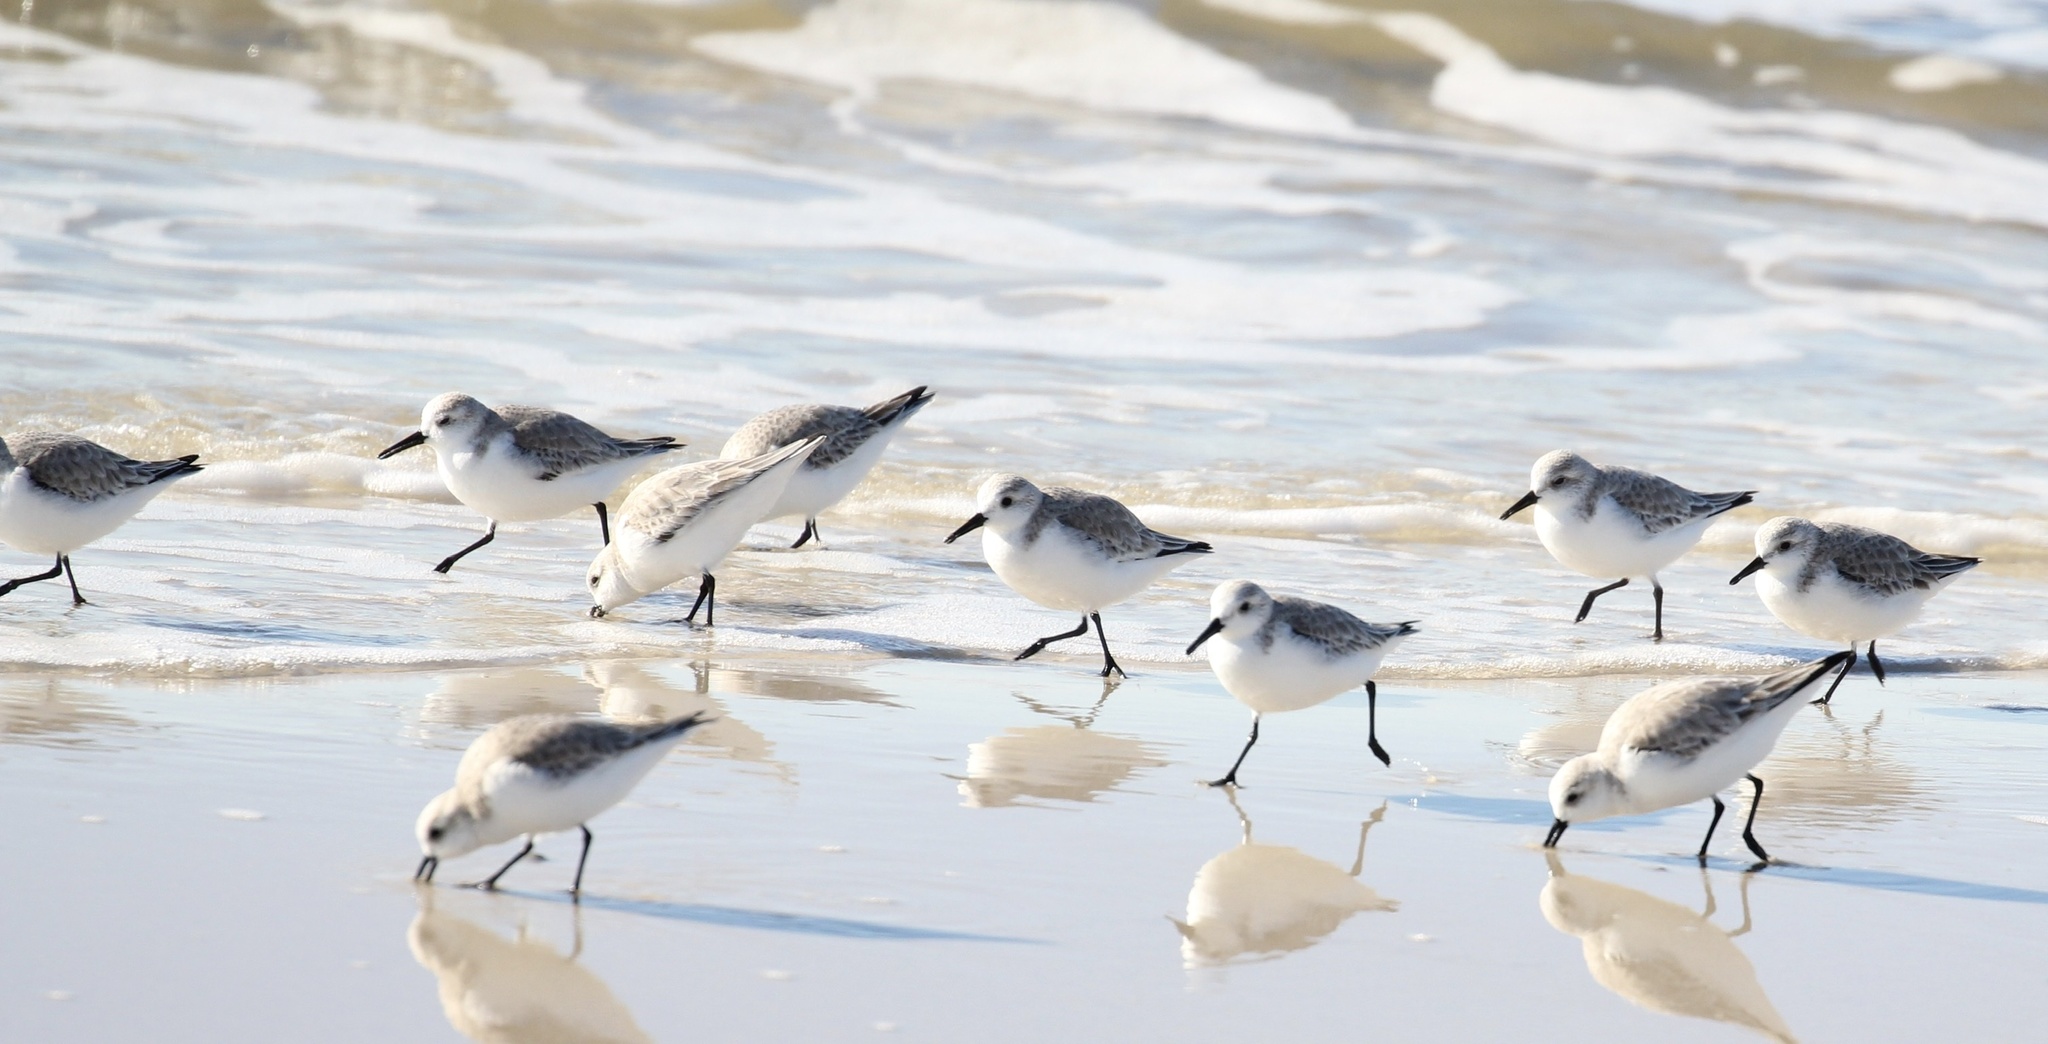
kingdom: Animalia
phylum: Chordata
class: Aves
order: Charadriiformes
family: Scolopacidae
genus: Calidris
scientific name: Calidris alba
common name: Sanderling
